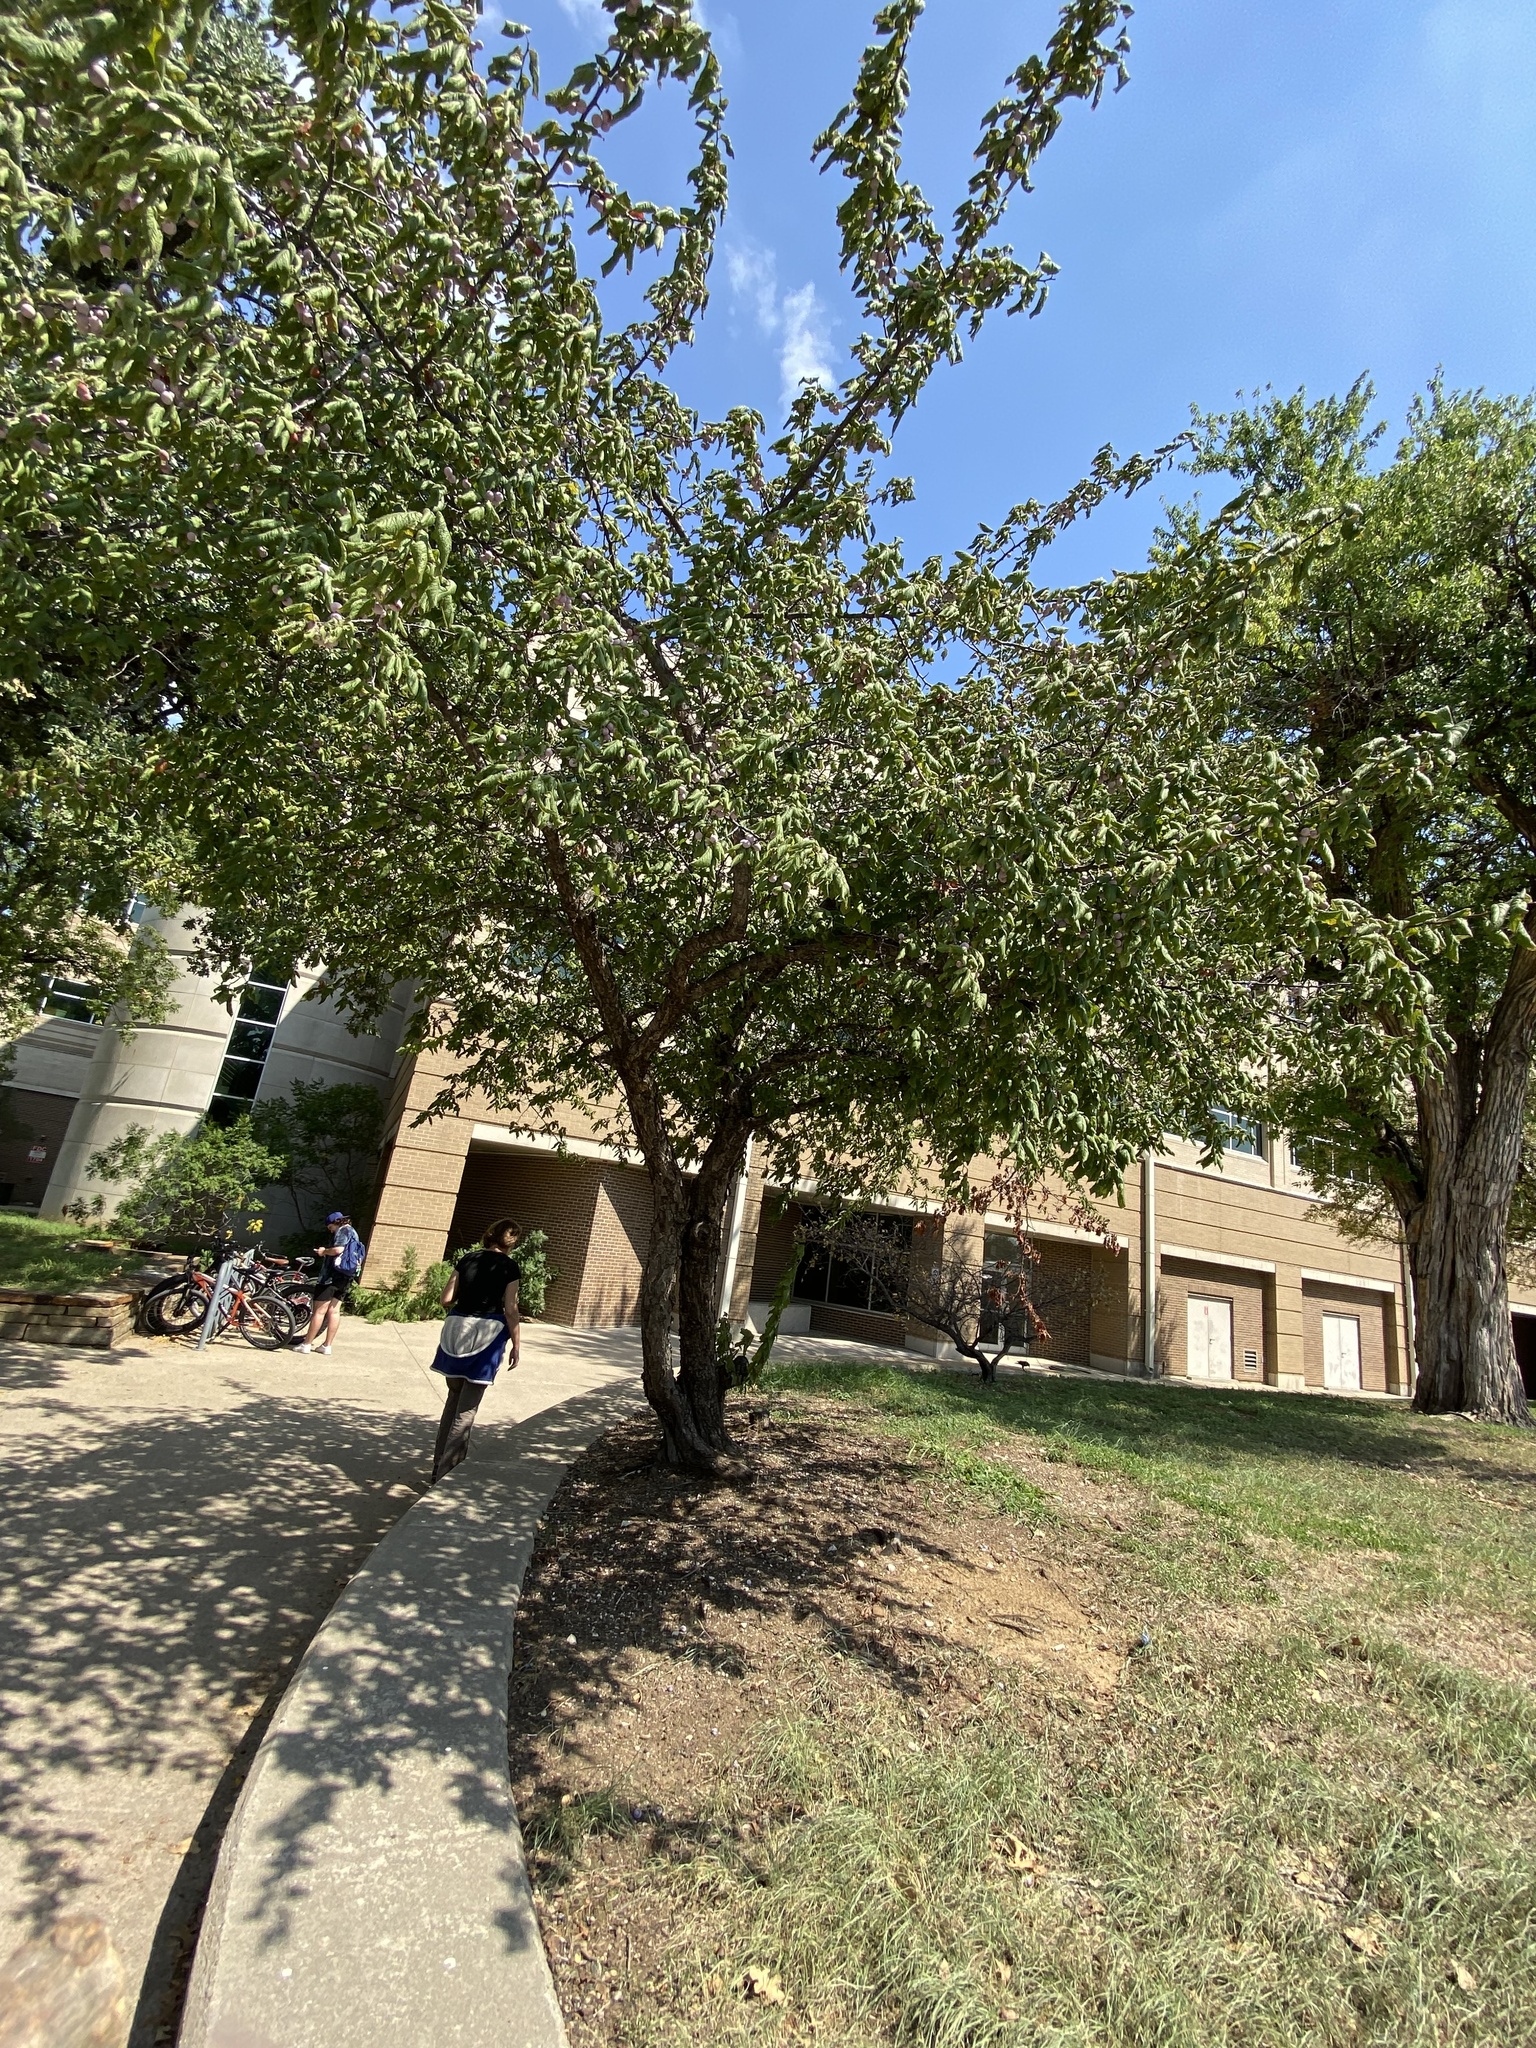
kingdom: Plantae
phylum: Tracheophyta
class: Magnoliopsida
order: Rosales
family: Rosaceae
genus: Prunus
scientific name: Prunus mexicana
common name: Mexican plum
